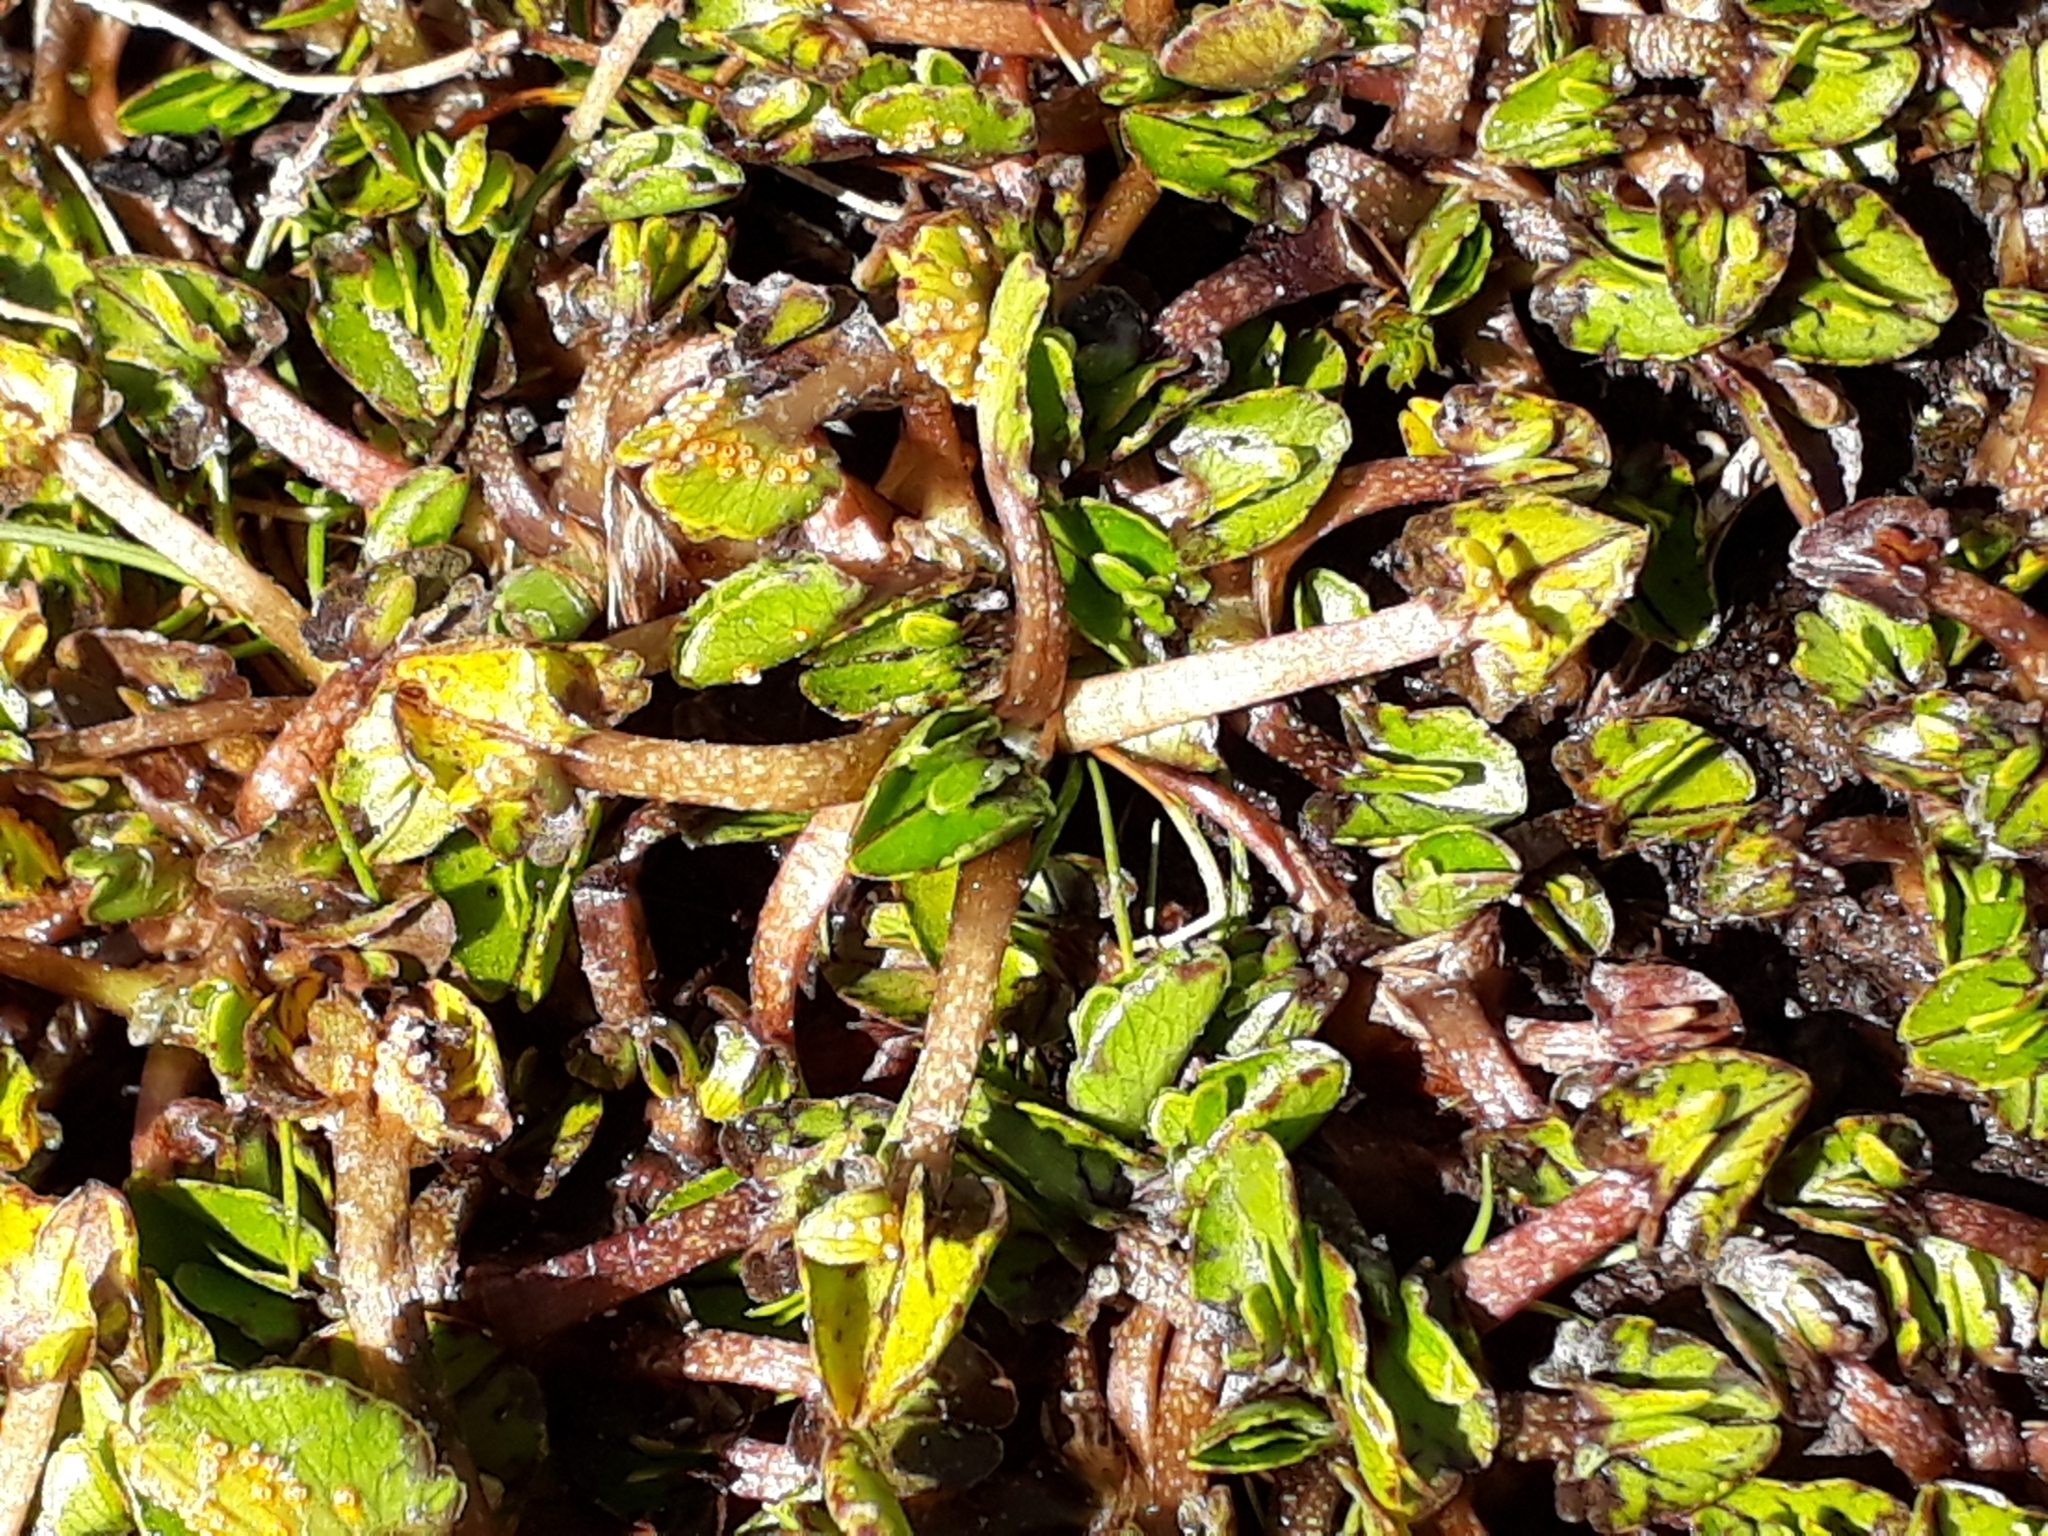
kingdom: Plantae
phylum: Tracheophyta
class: Magnoliopsida
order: Ranunculales
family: Ranunculaceae
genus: Caltha
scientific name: Caltha obtusa
